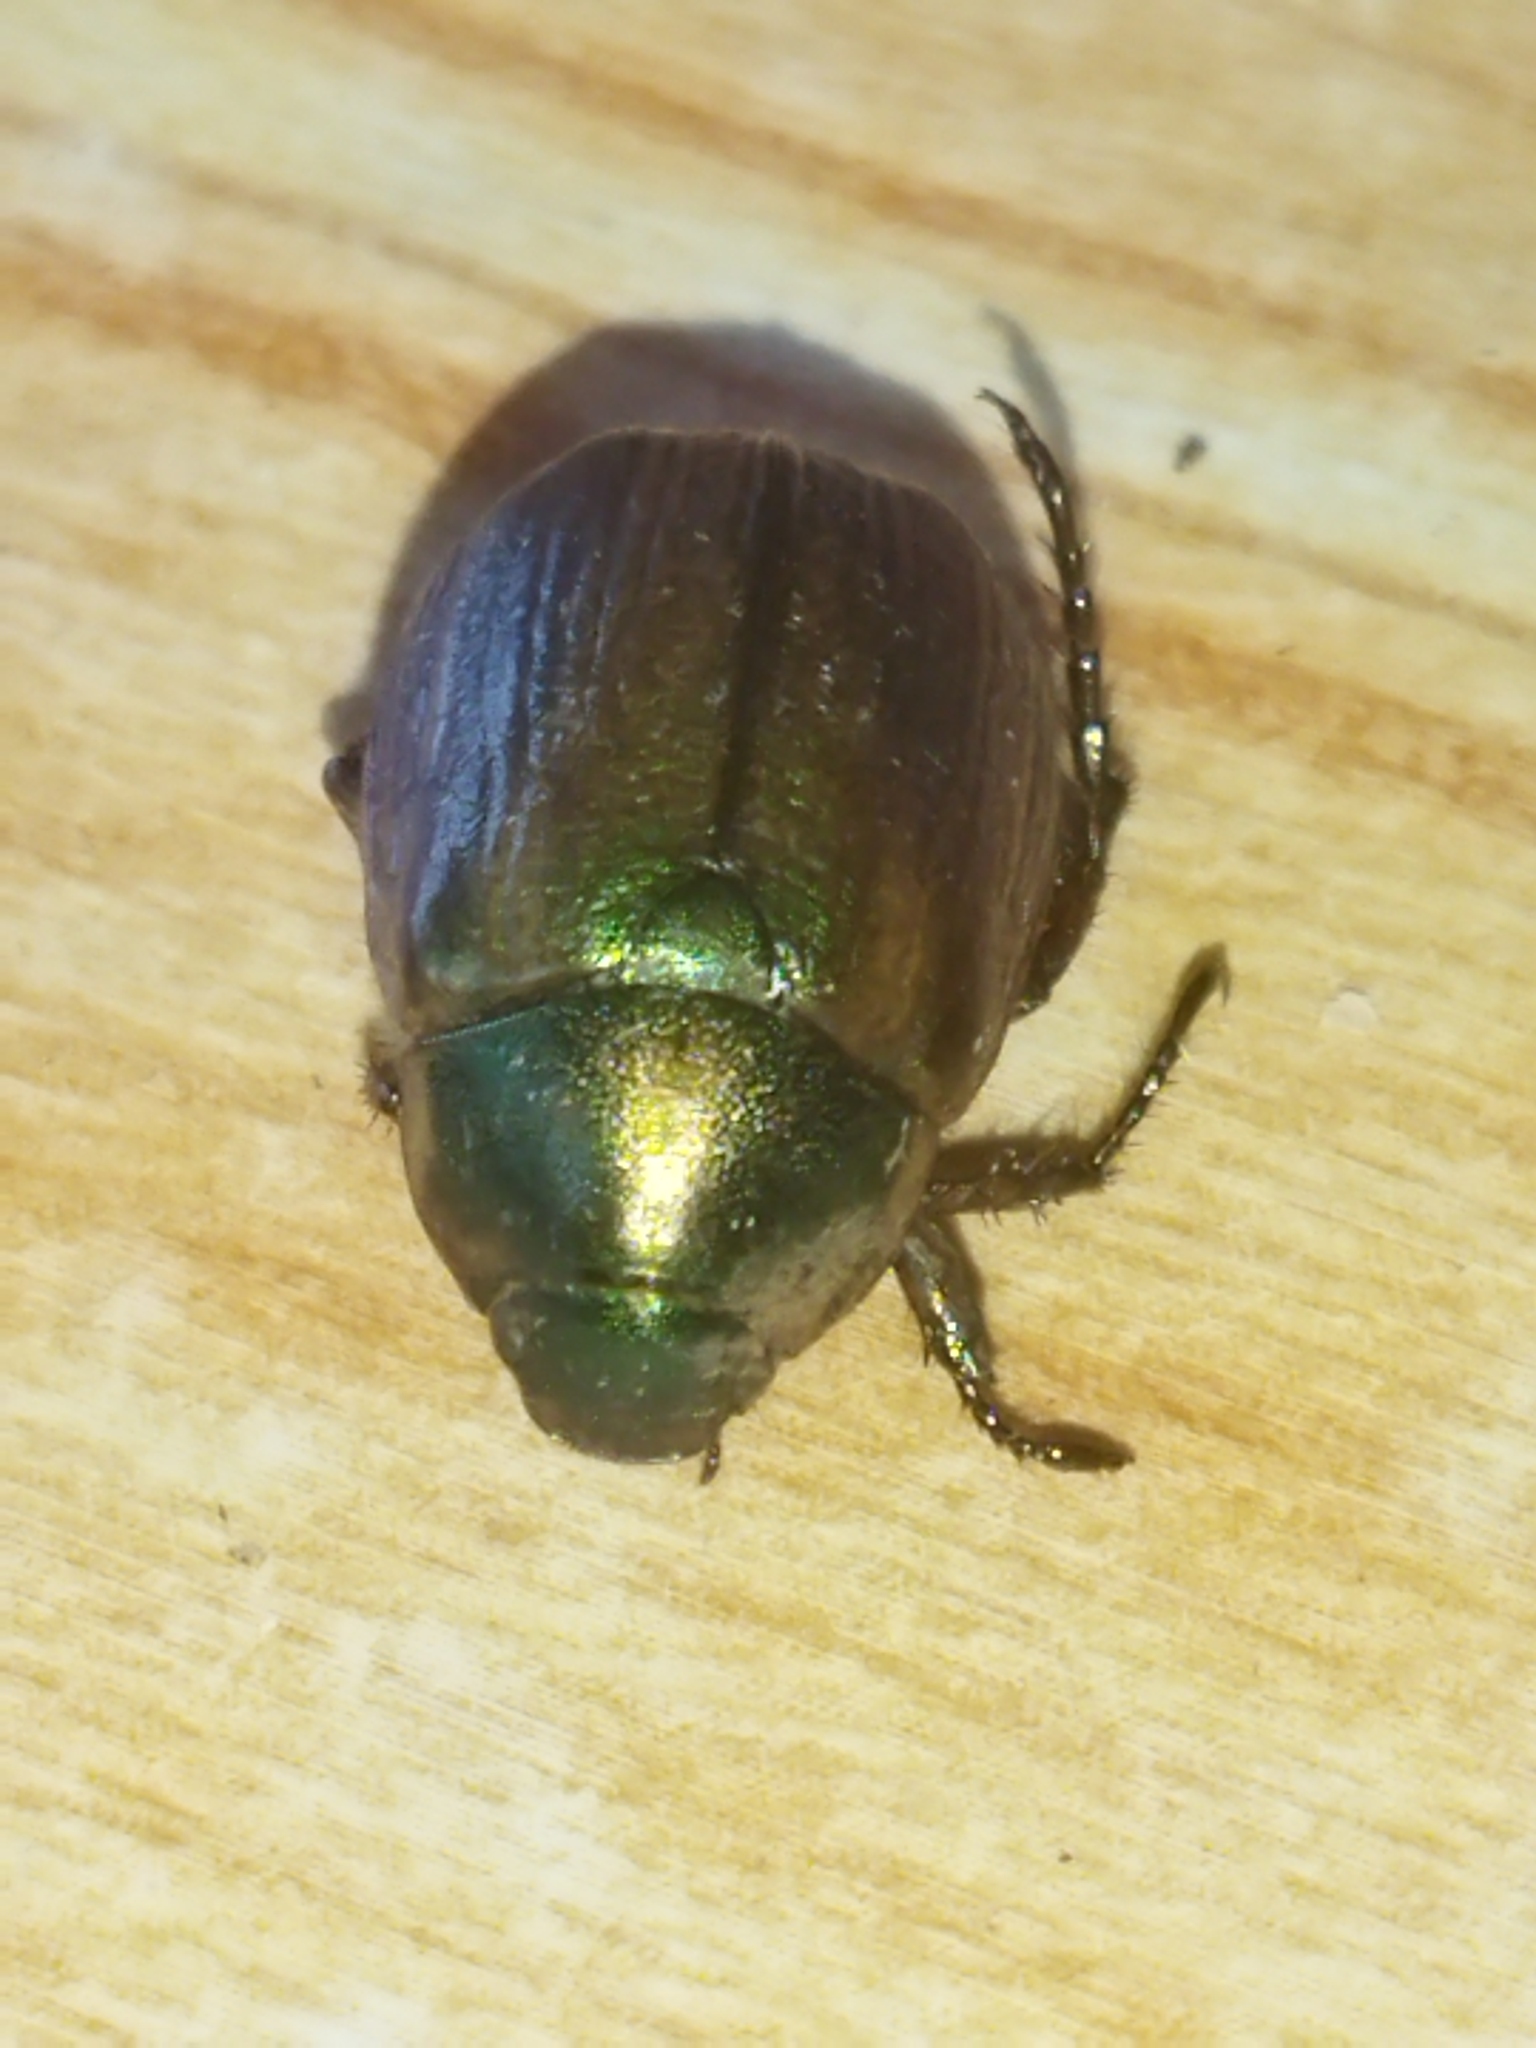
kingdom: Animalia
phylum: Arthropoda
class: Insecta
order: Coleoptera
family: Scarabaeidae
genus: Anomala
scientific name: Anomala vitis
